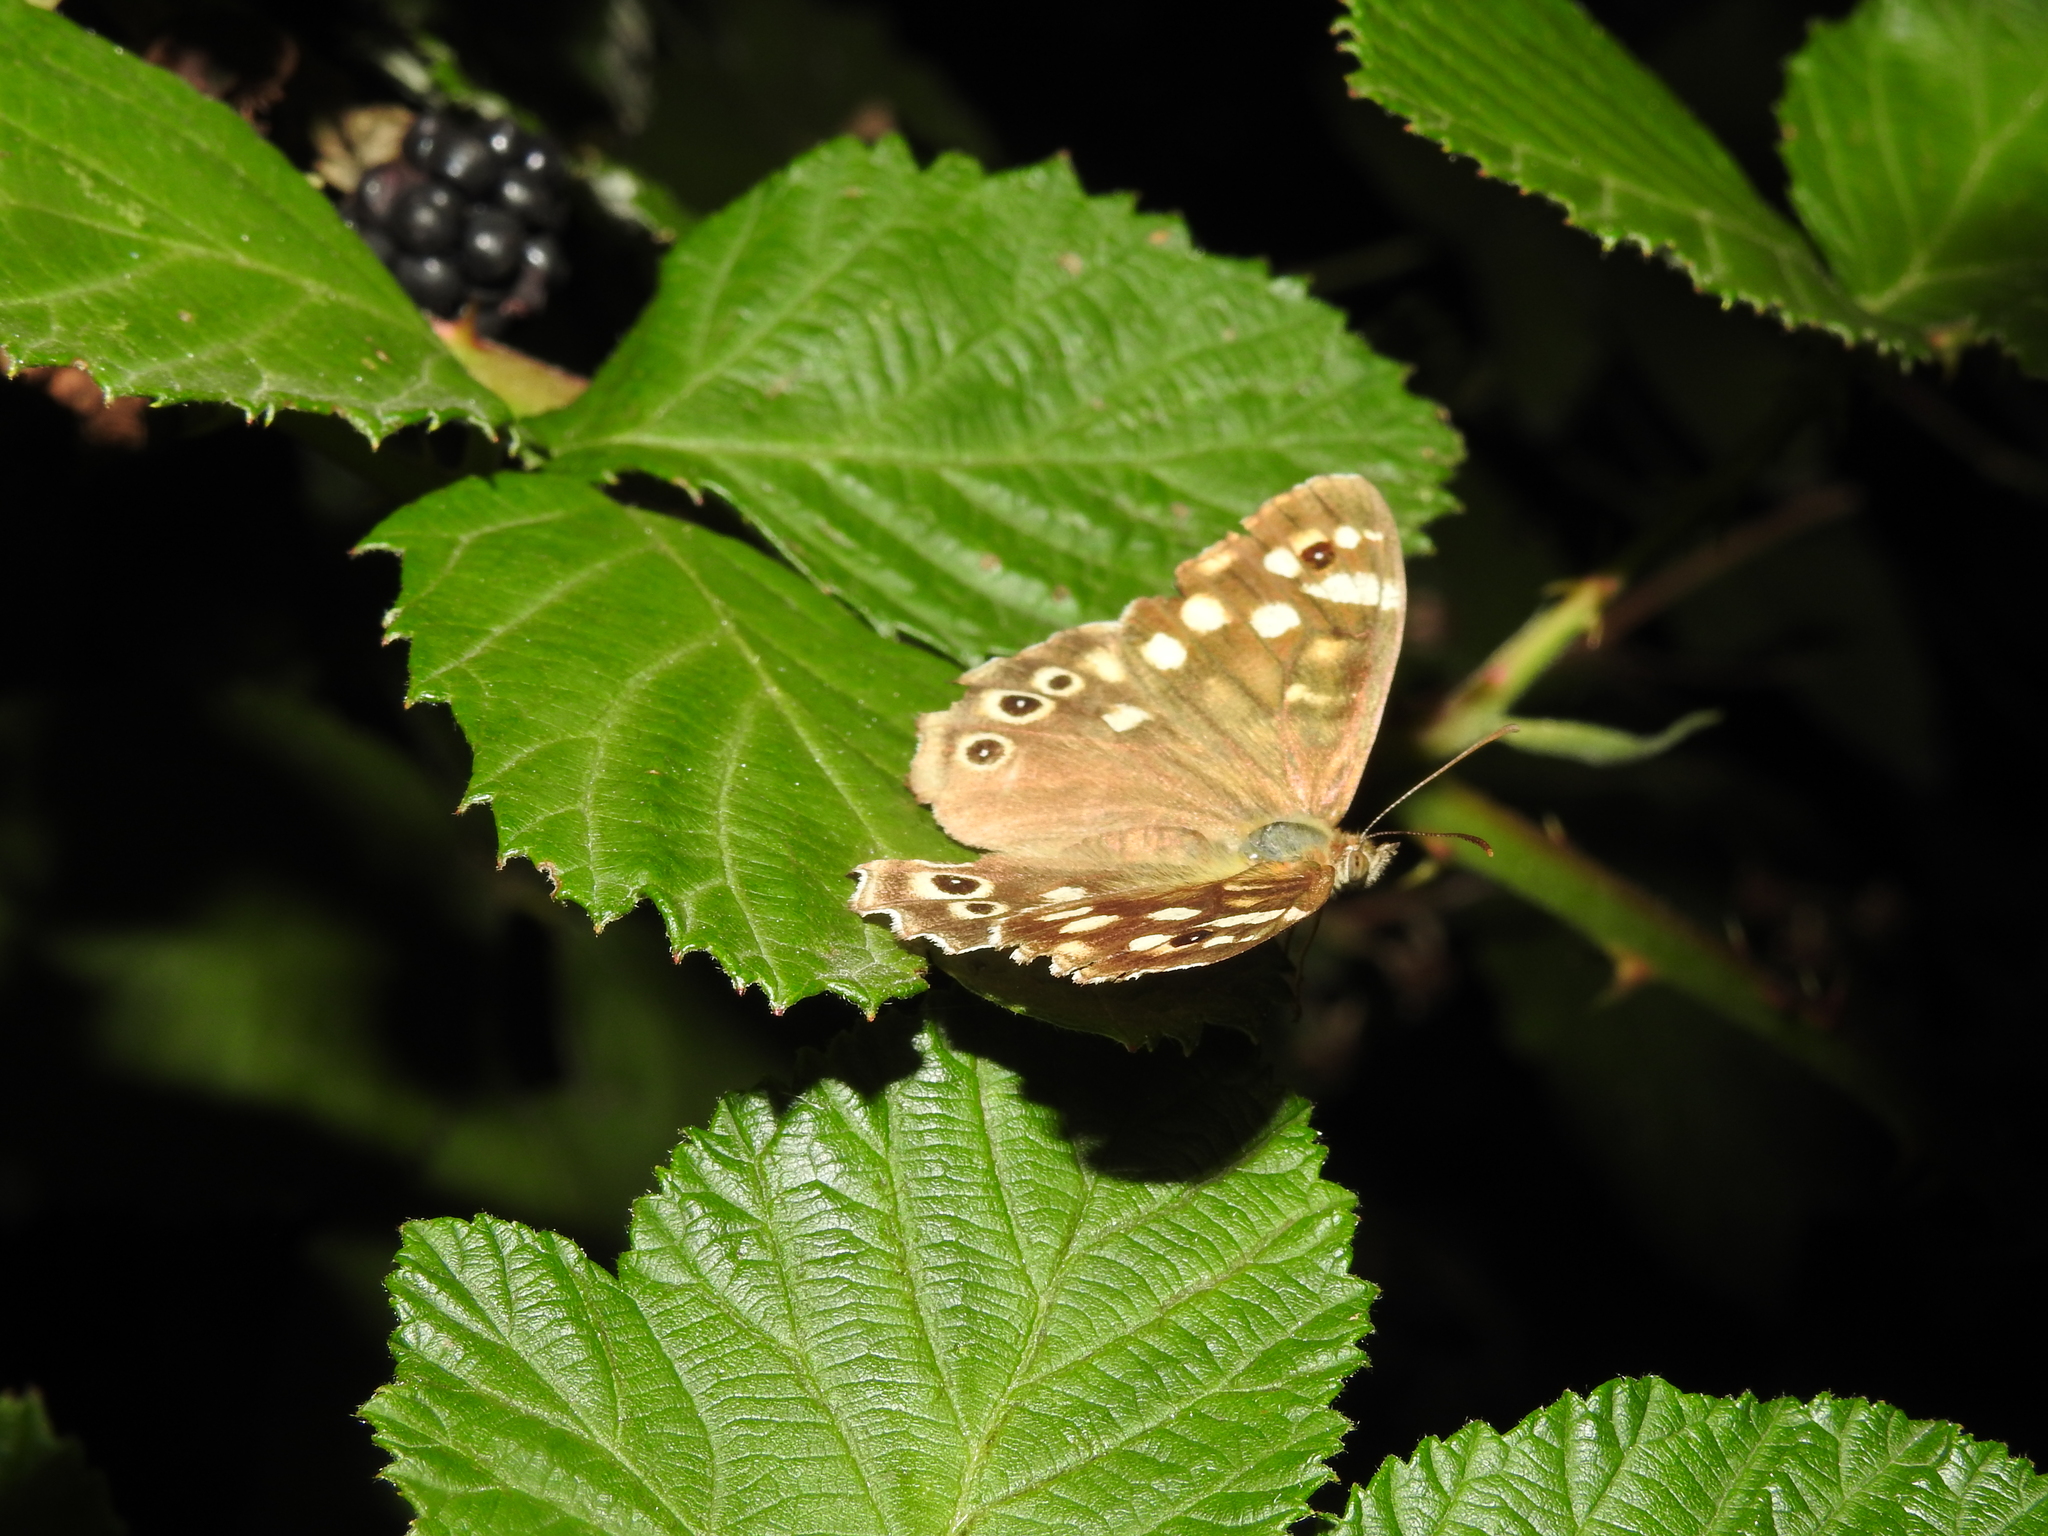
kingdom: Animalia
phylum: Arthropoda
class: Insecta
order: Lepidoptera
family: Nymphalidae
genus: Pararge
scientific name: Pararge aegeria
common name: Speckled wood
